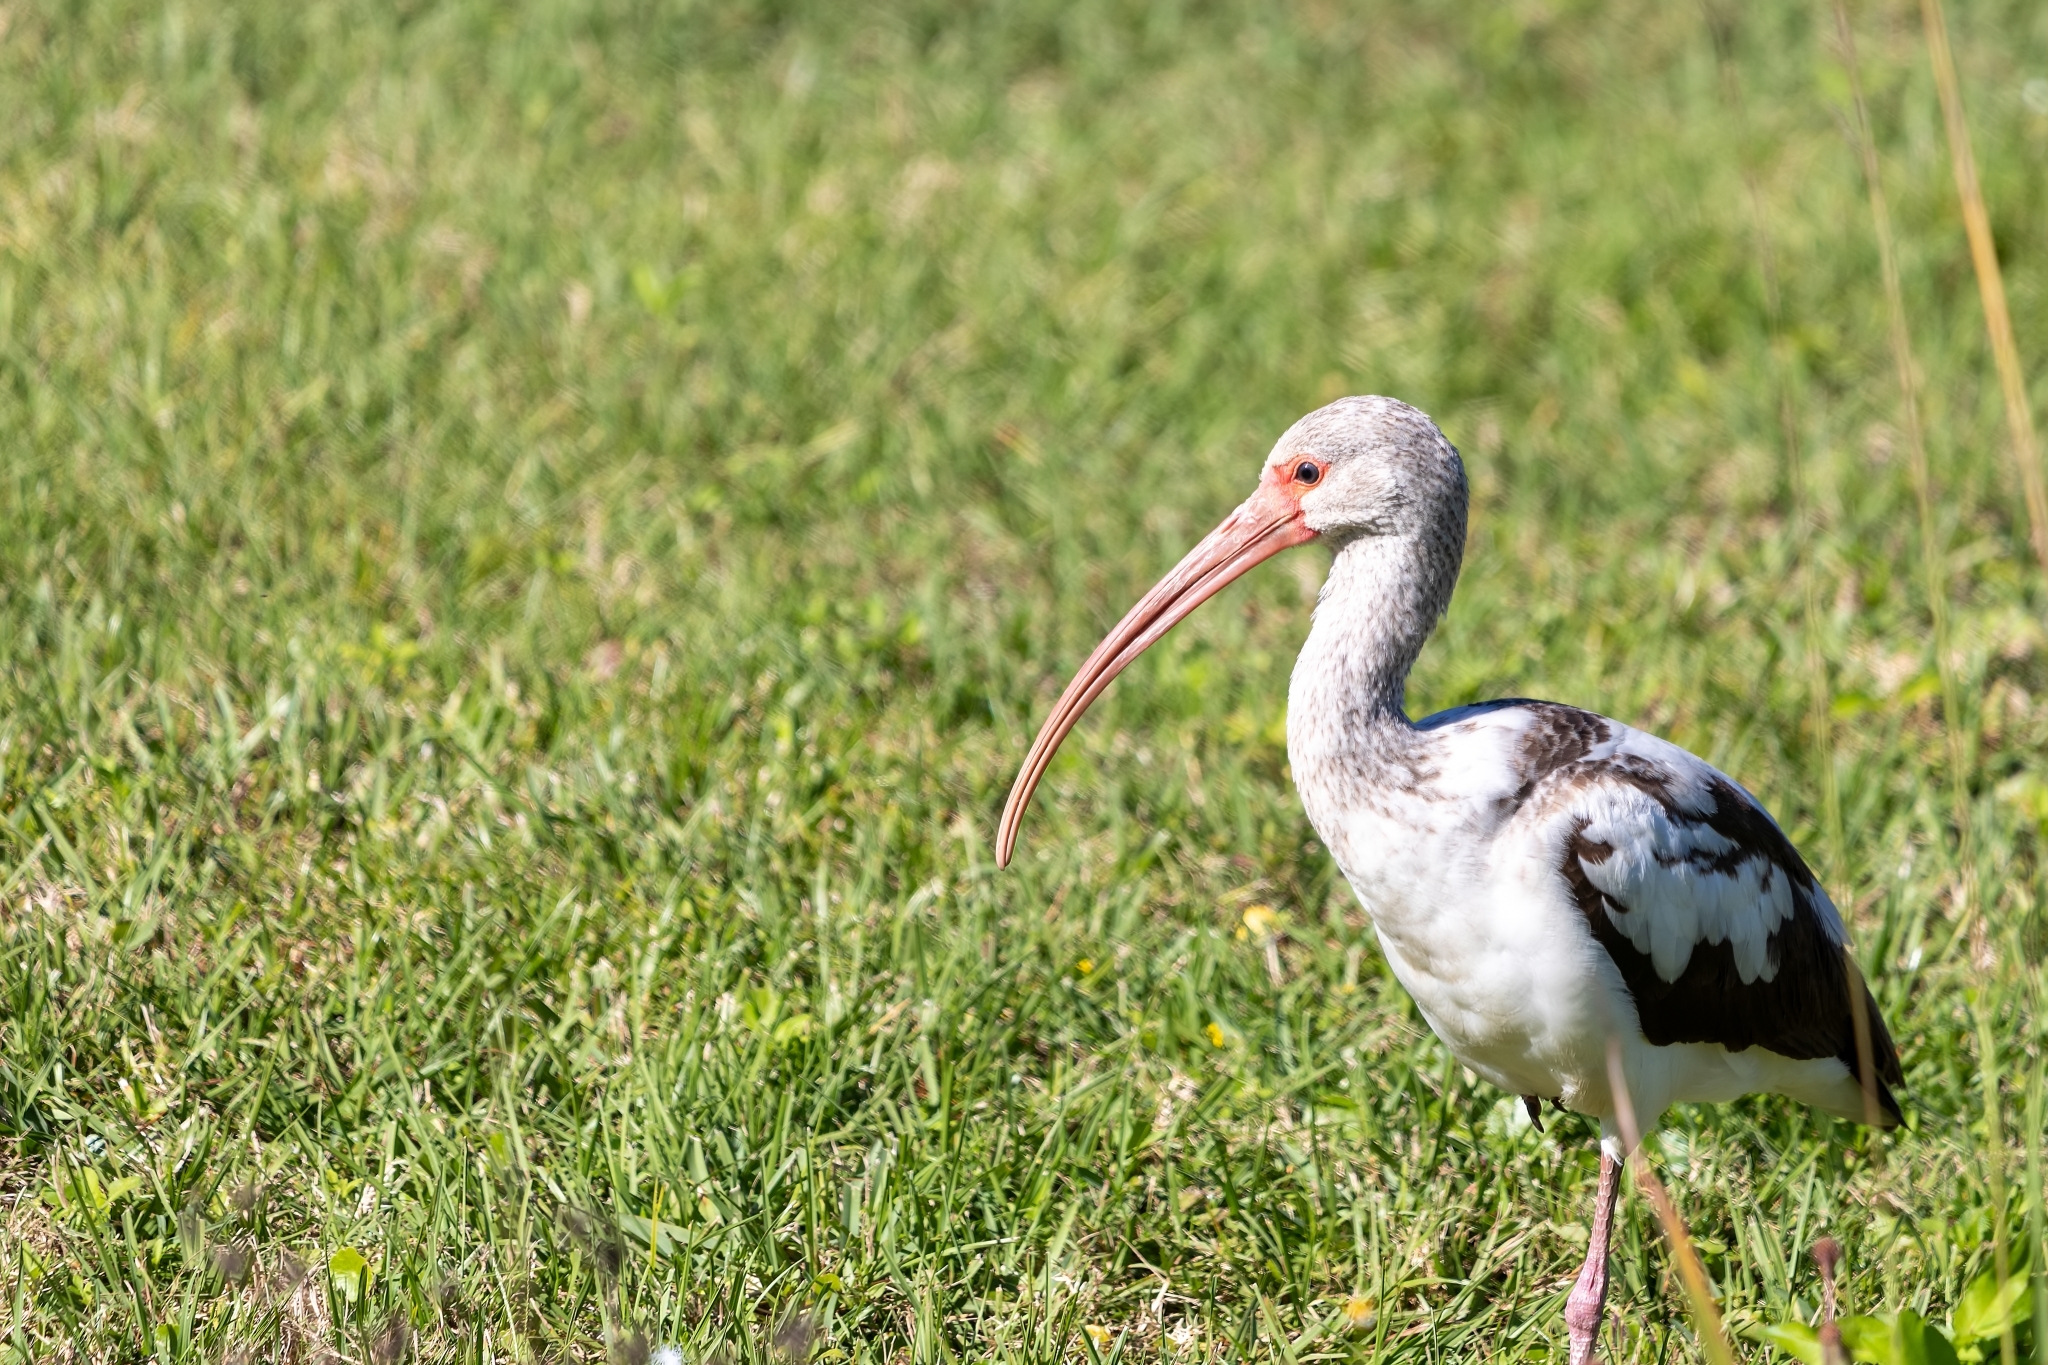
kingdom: Animalia
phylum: Chordata
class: Aves
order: Pelecaniformes
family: Threskiornithidae
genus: Eudocimus
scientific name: Eudocimus albus
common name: White ibis
